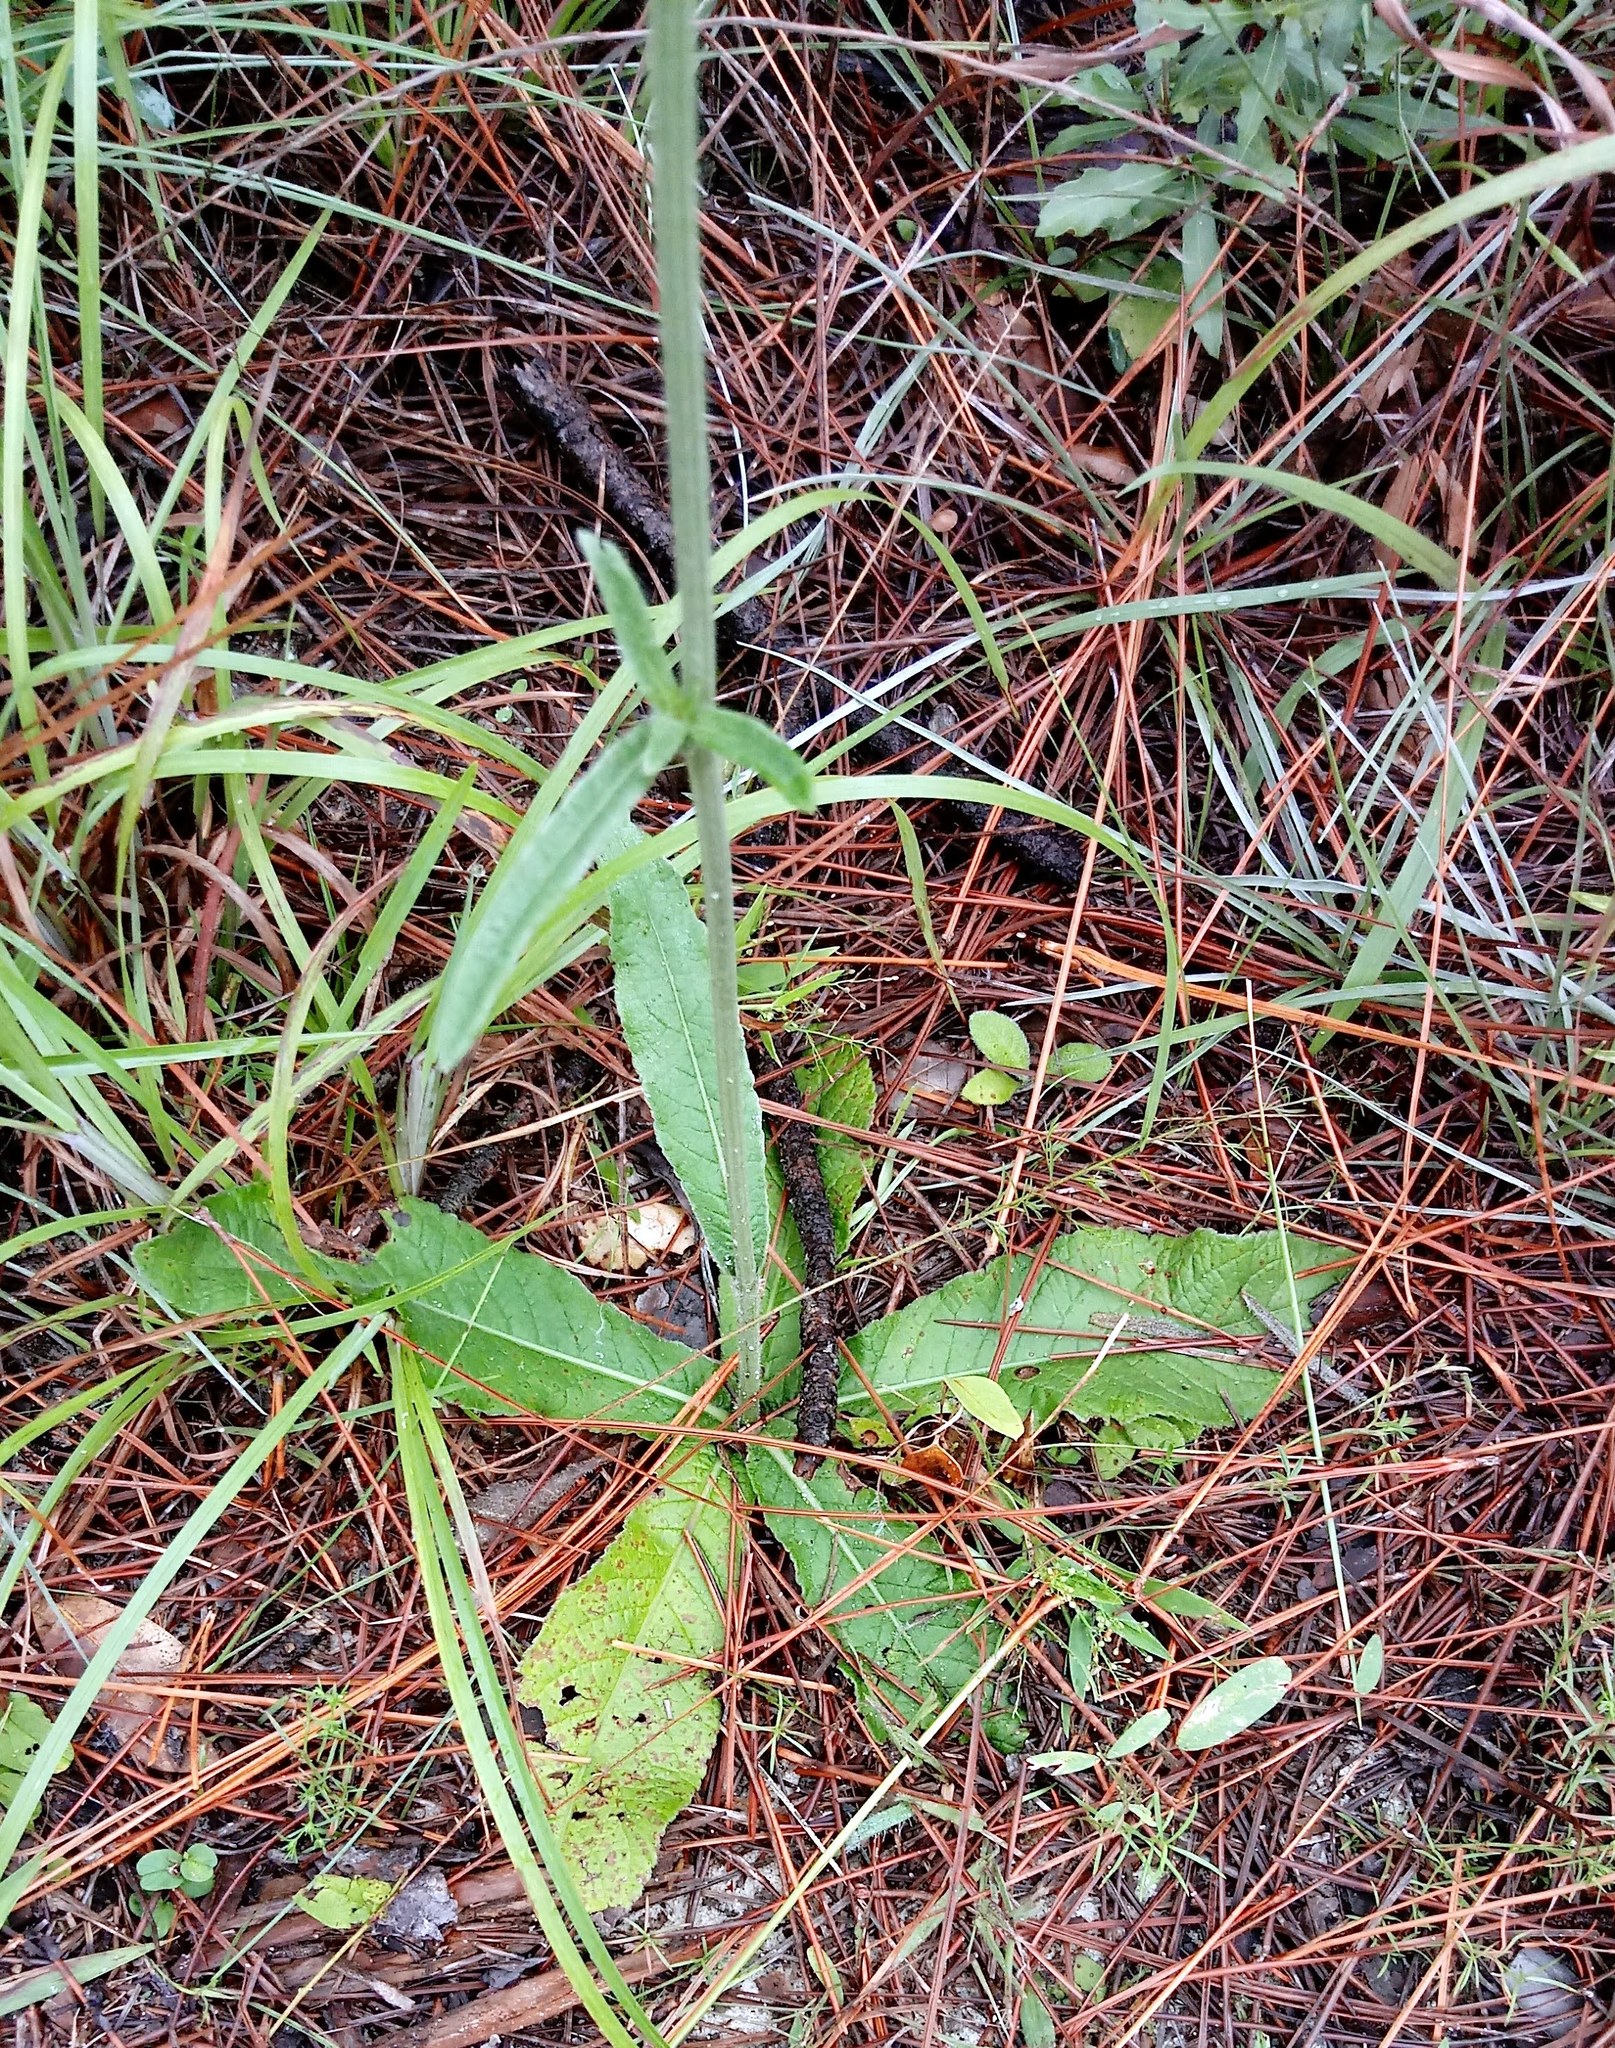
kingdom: Plantae
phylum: Tracheophyta
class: Magnoliopsida
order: Asterales
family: Asteraceae
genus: Elephantopus
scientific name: Elephantopus tomentosus
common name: Tobacco-weed
